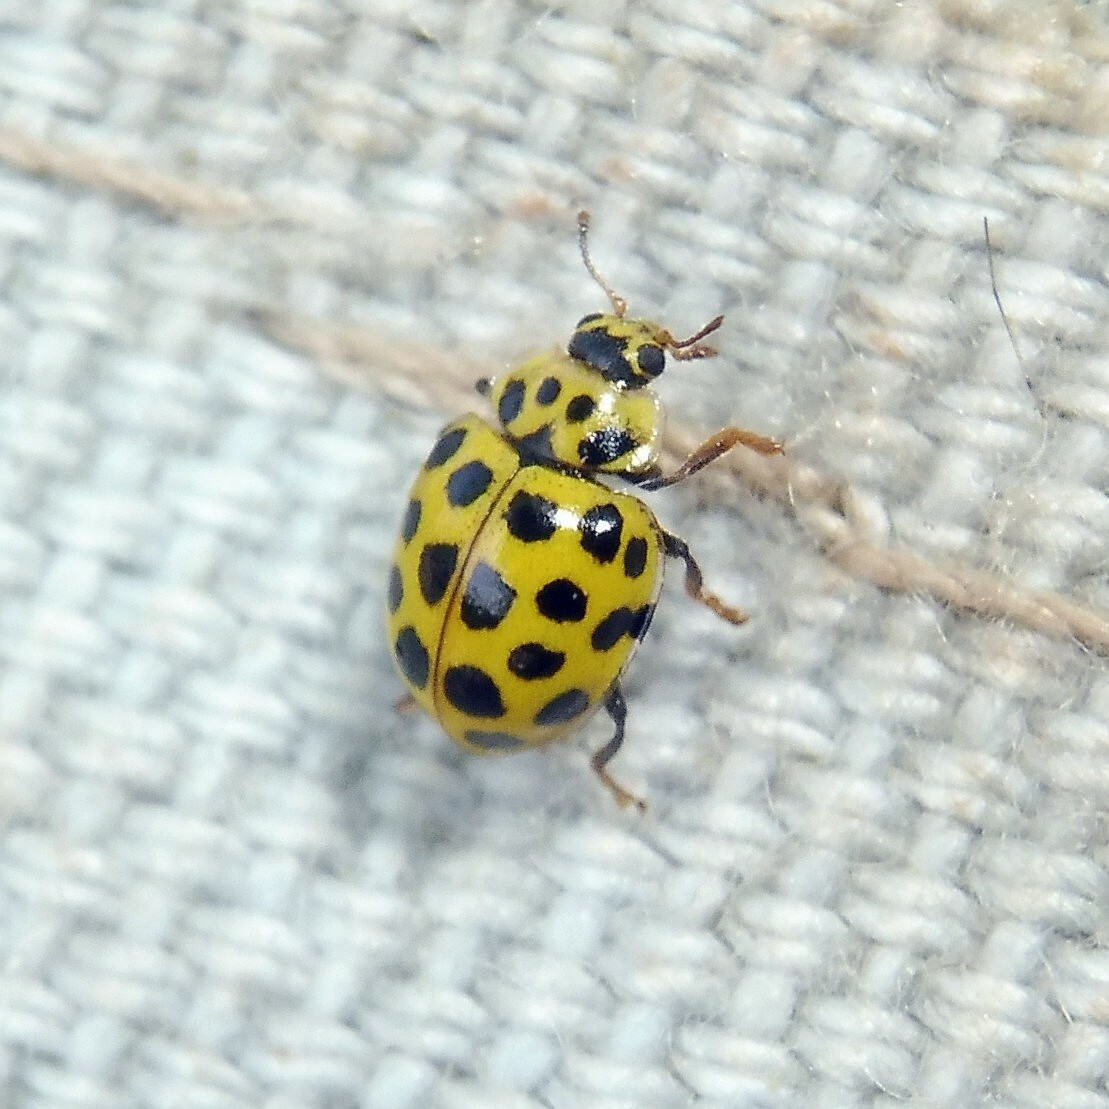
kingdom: Animalia
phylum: Arthropoda
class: Insecta
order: Coleoptera
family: Coccinellidae
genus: Psyllobora
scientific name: Psyllobora vigintiduopunctata
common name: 22-spot ladybird
